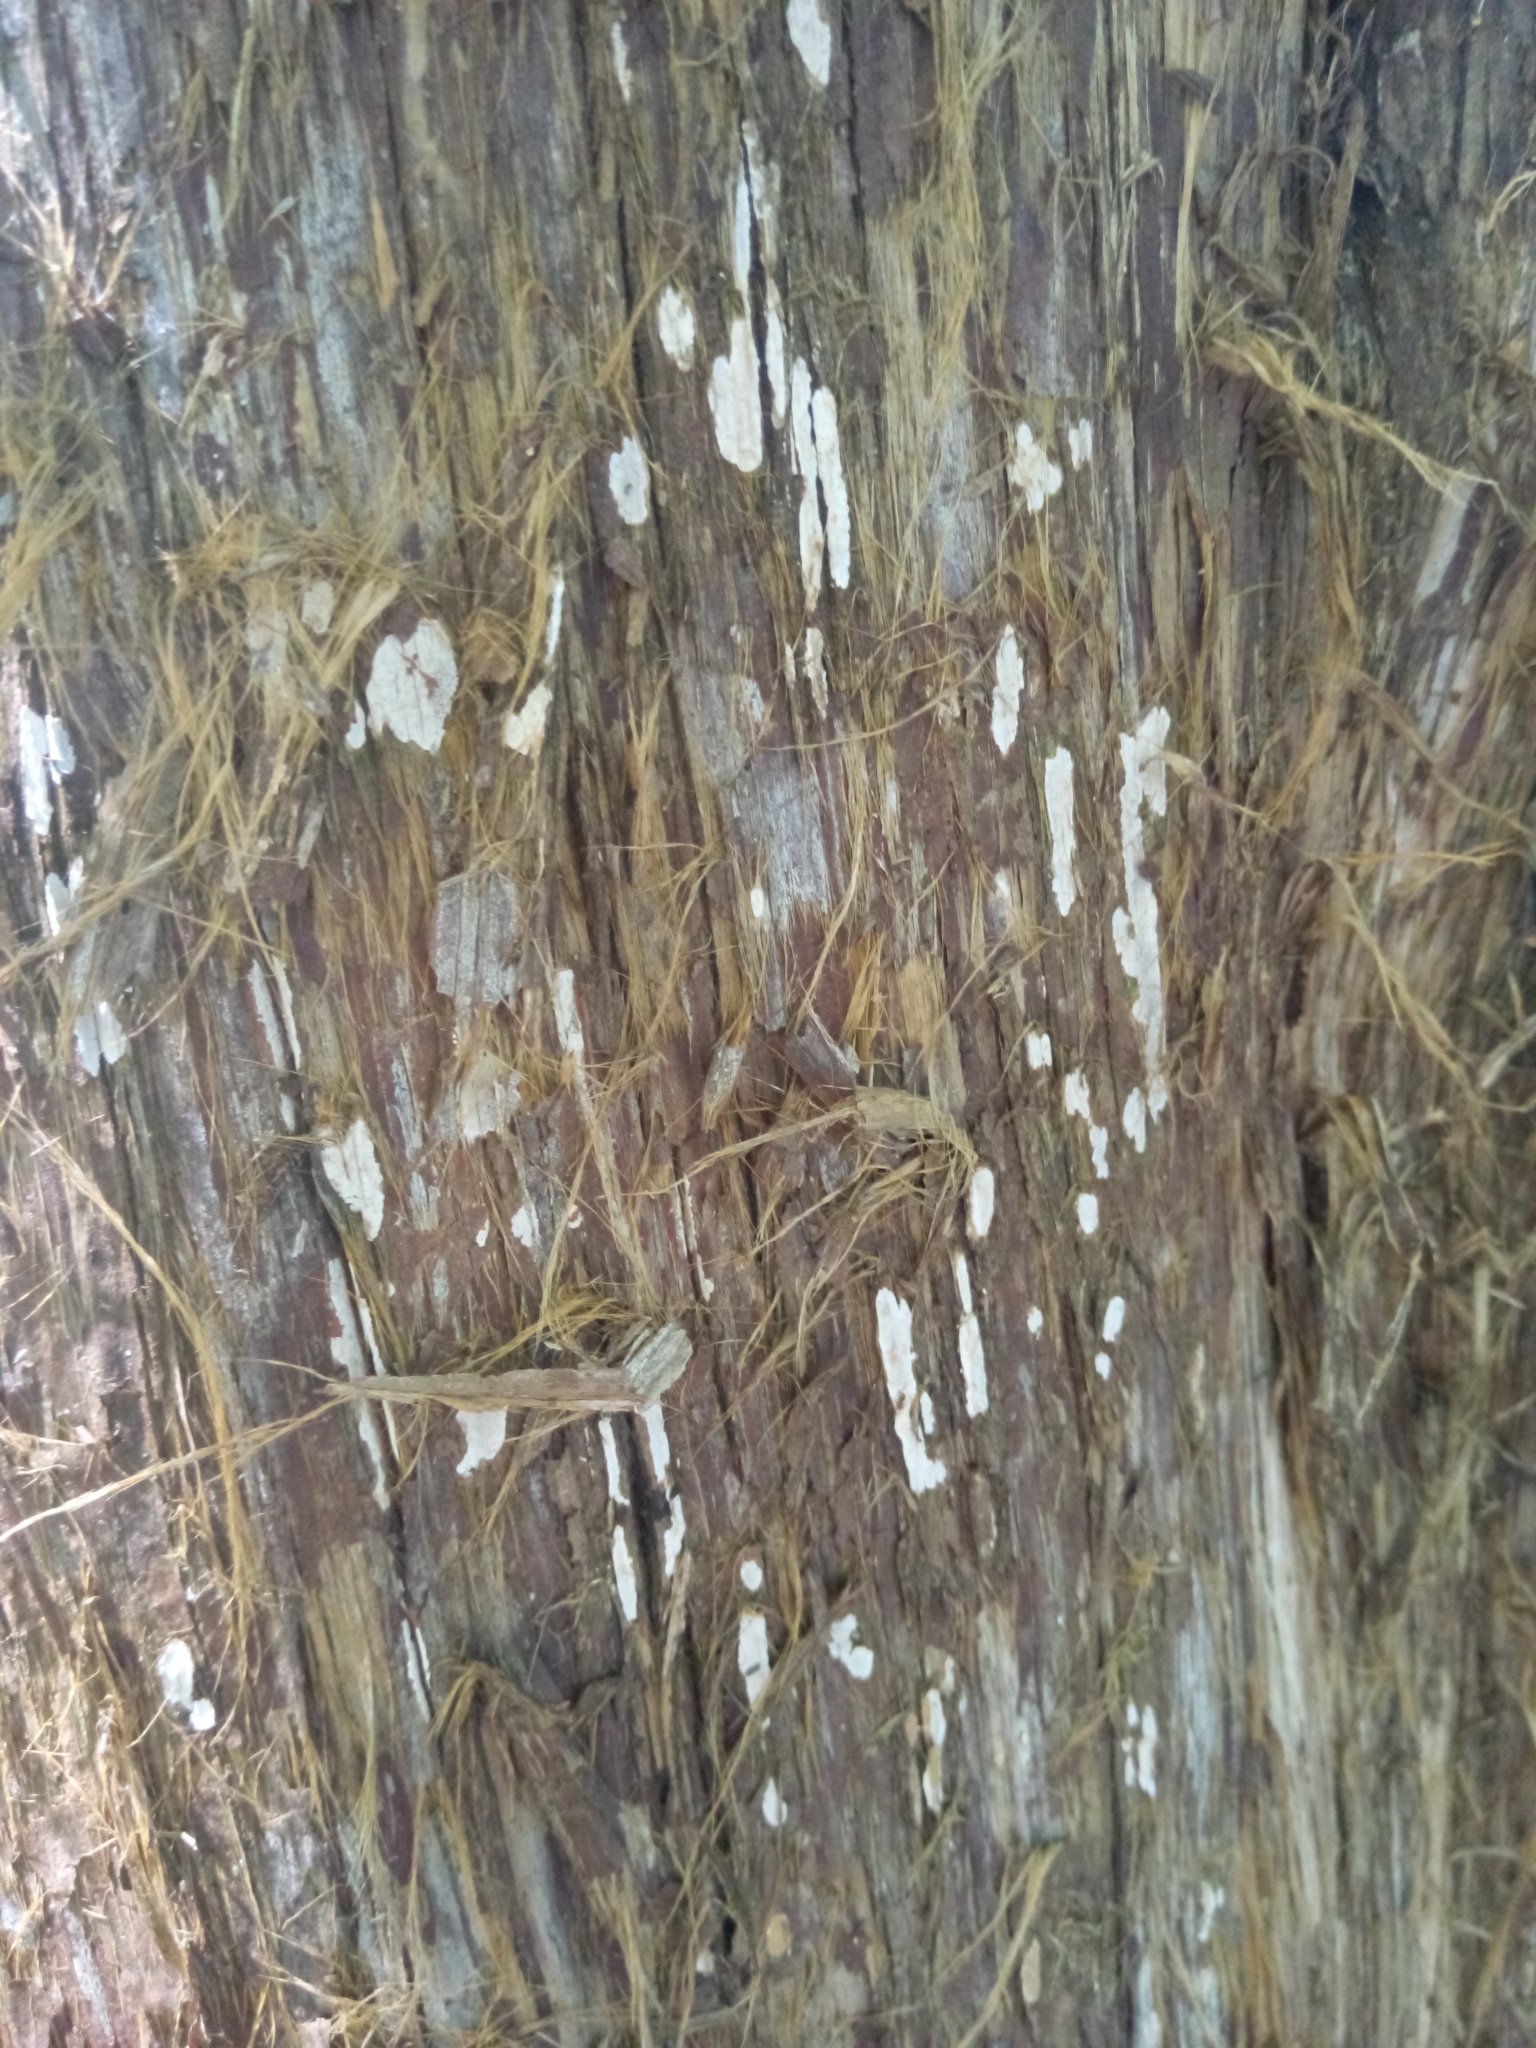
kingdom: Fungi
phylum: Basidiomycota
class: Agaricomycetes
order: Agaricales
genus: Dendrothele
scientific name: Dendrothele nivosa
